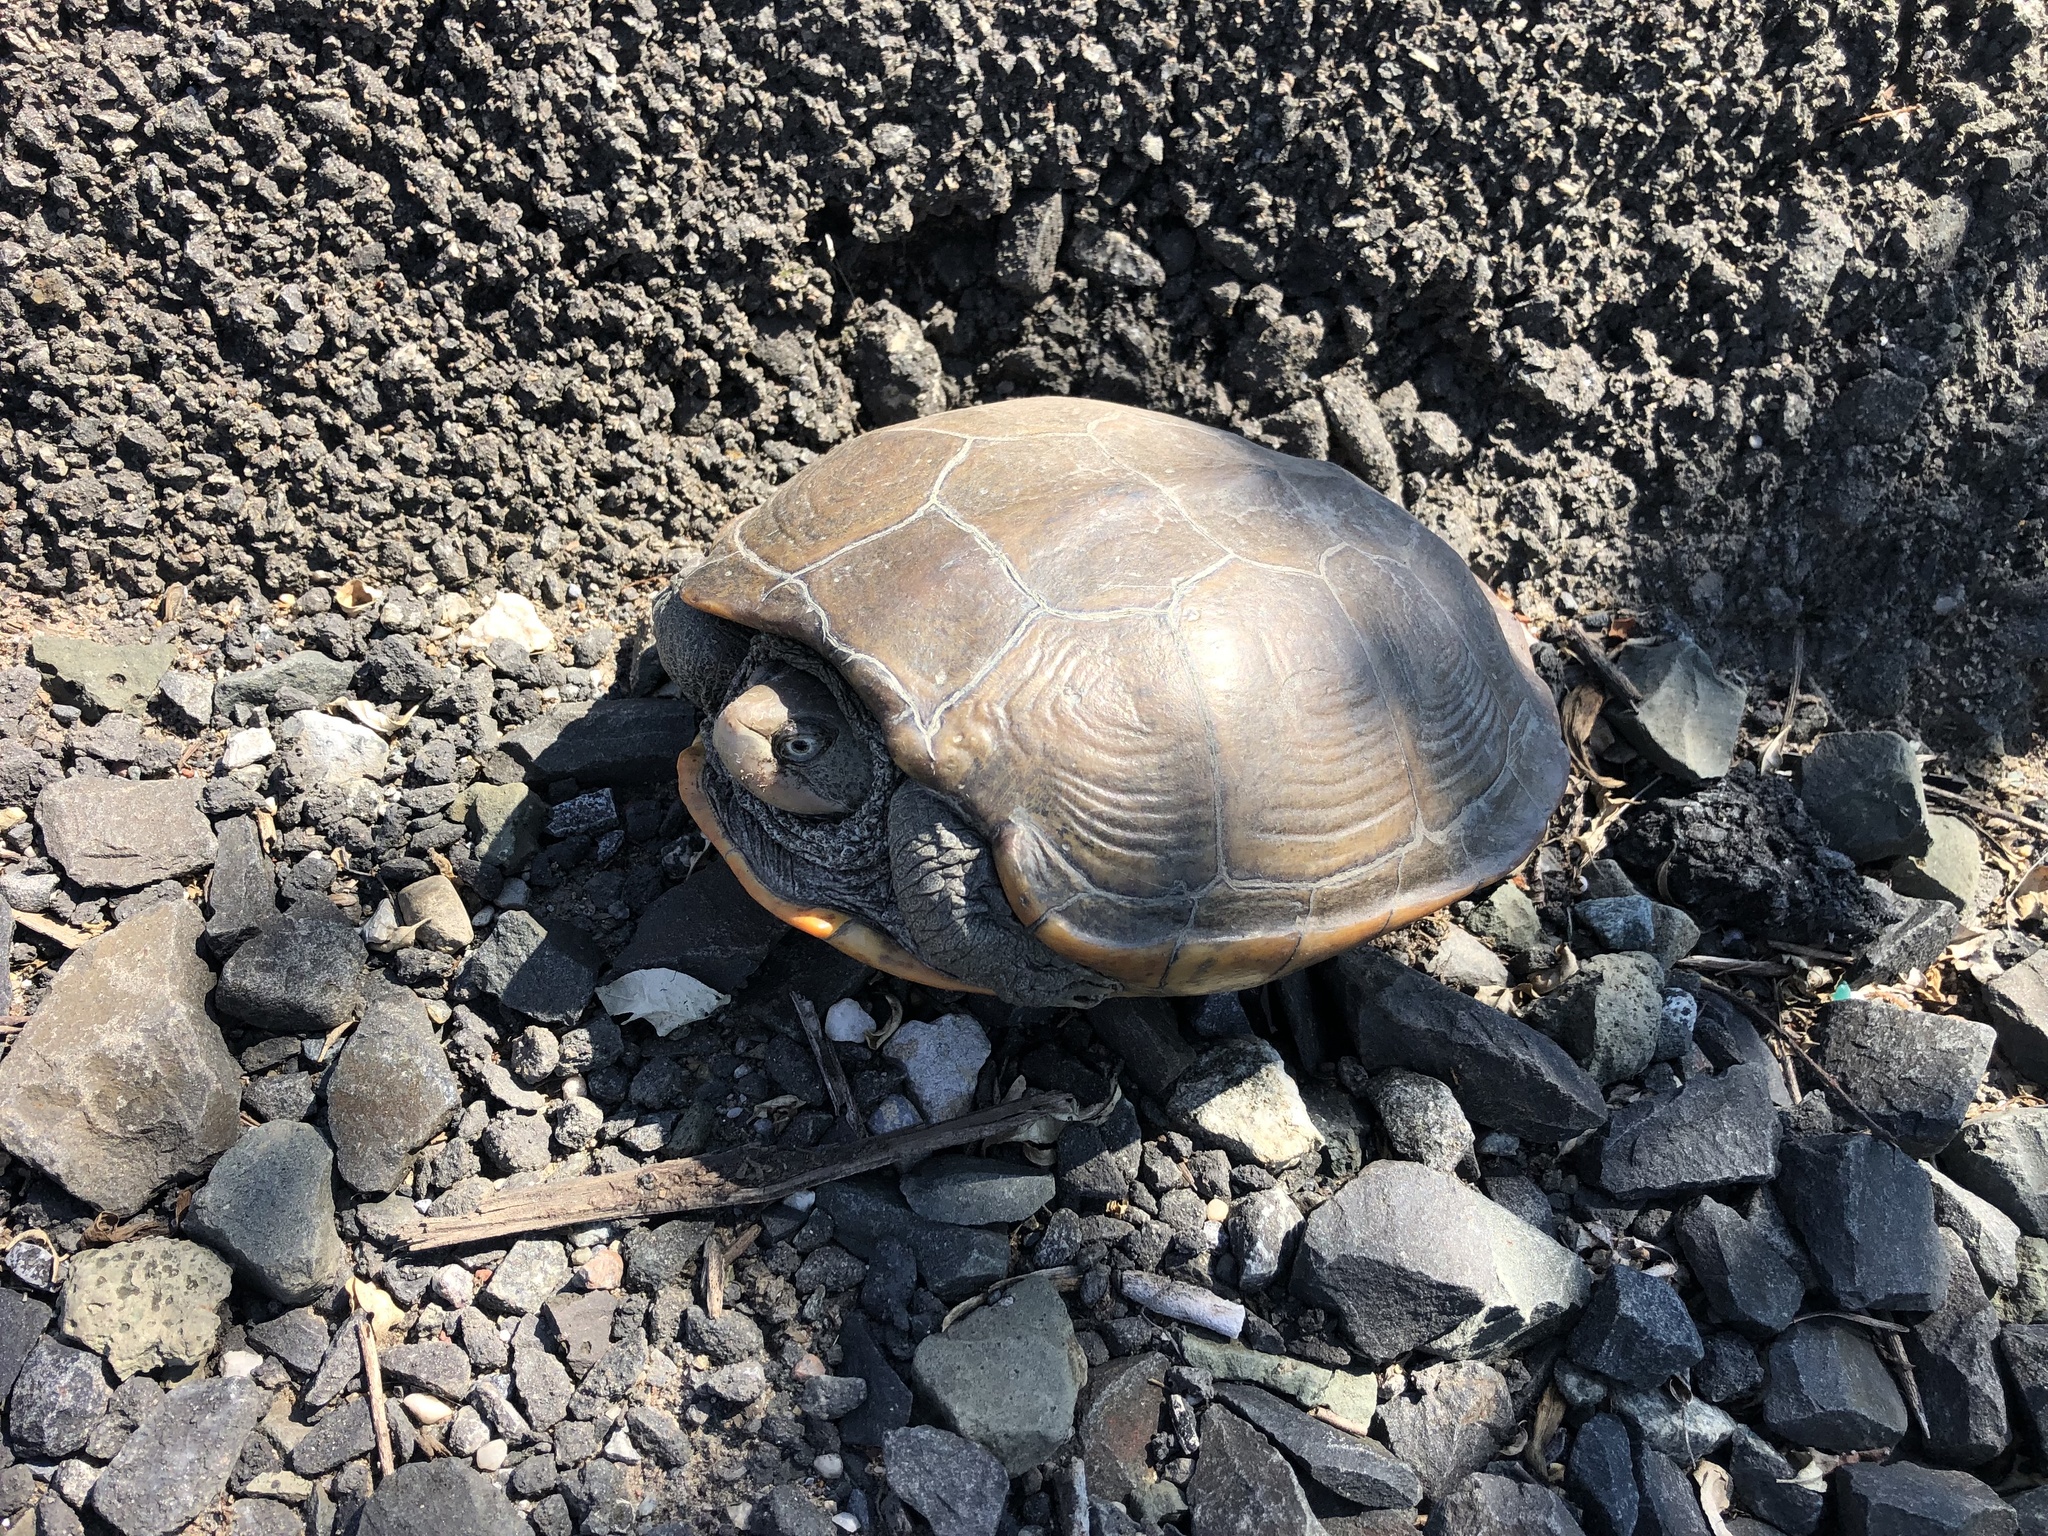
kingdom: Animalia
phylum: Chordata
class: Testudines
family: Emydidae
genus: Malaclemys
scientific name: Malaclemys terrapin
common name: Diamondback terrapin
